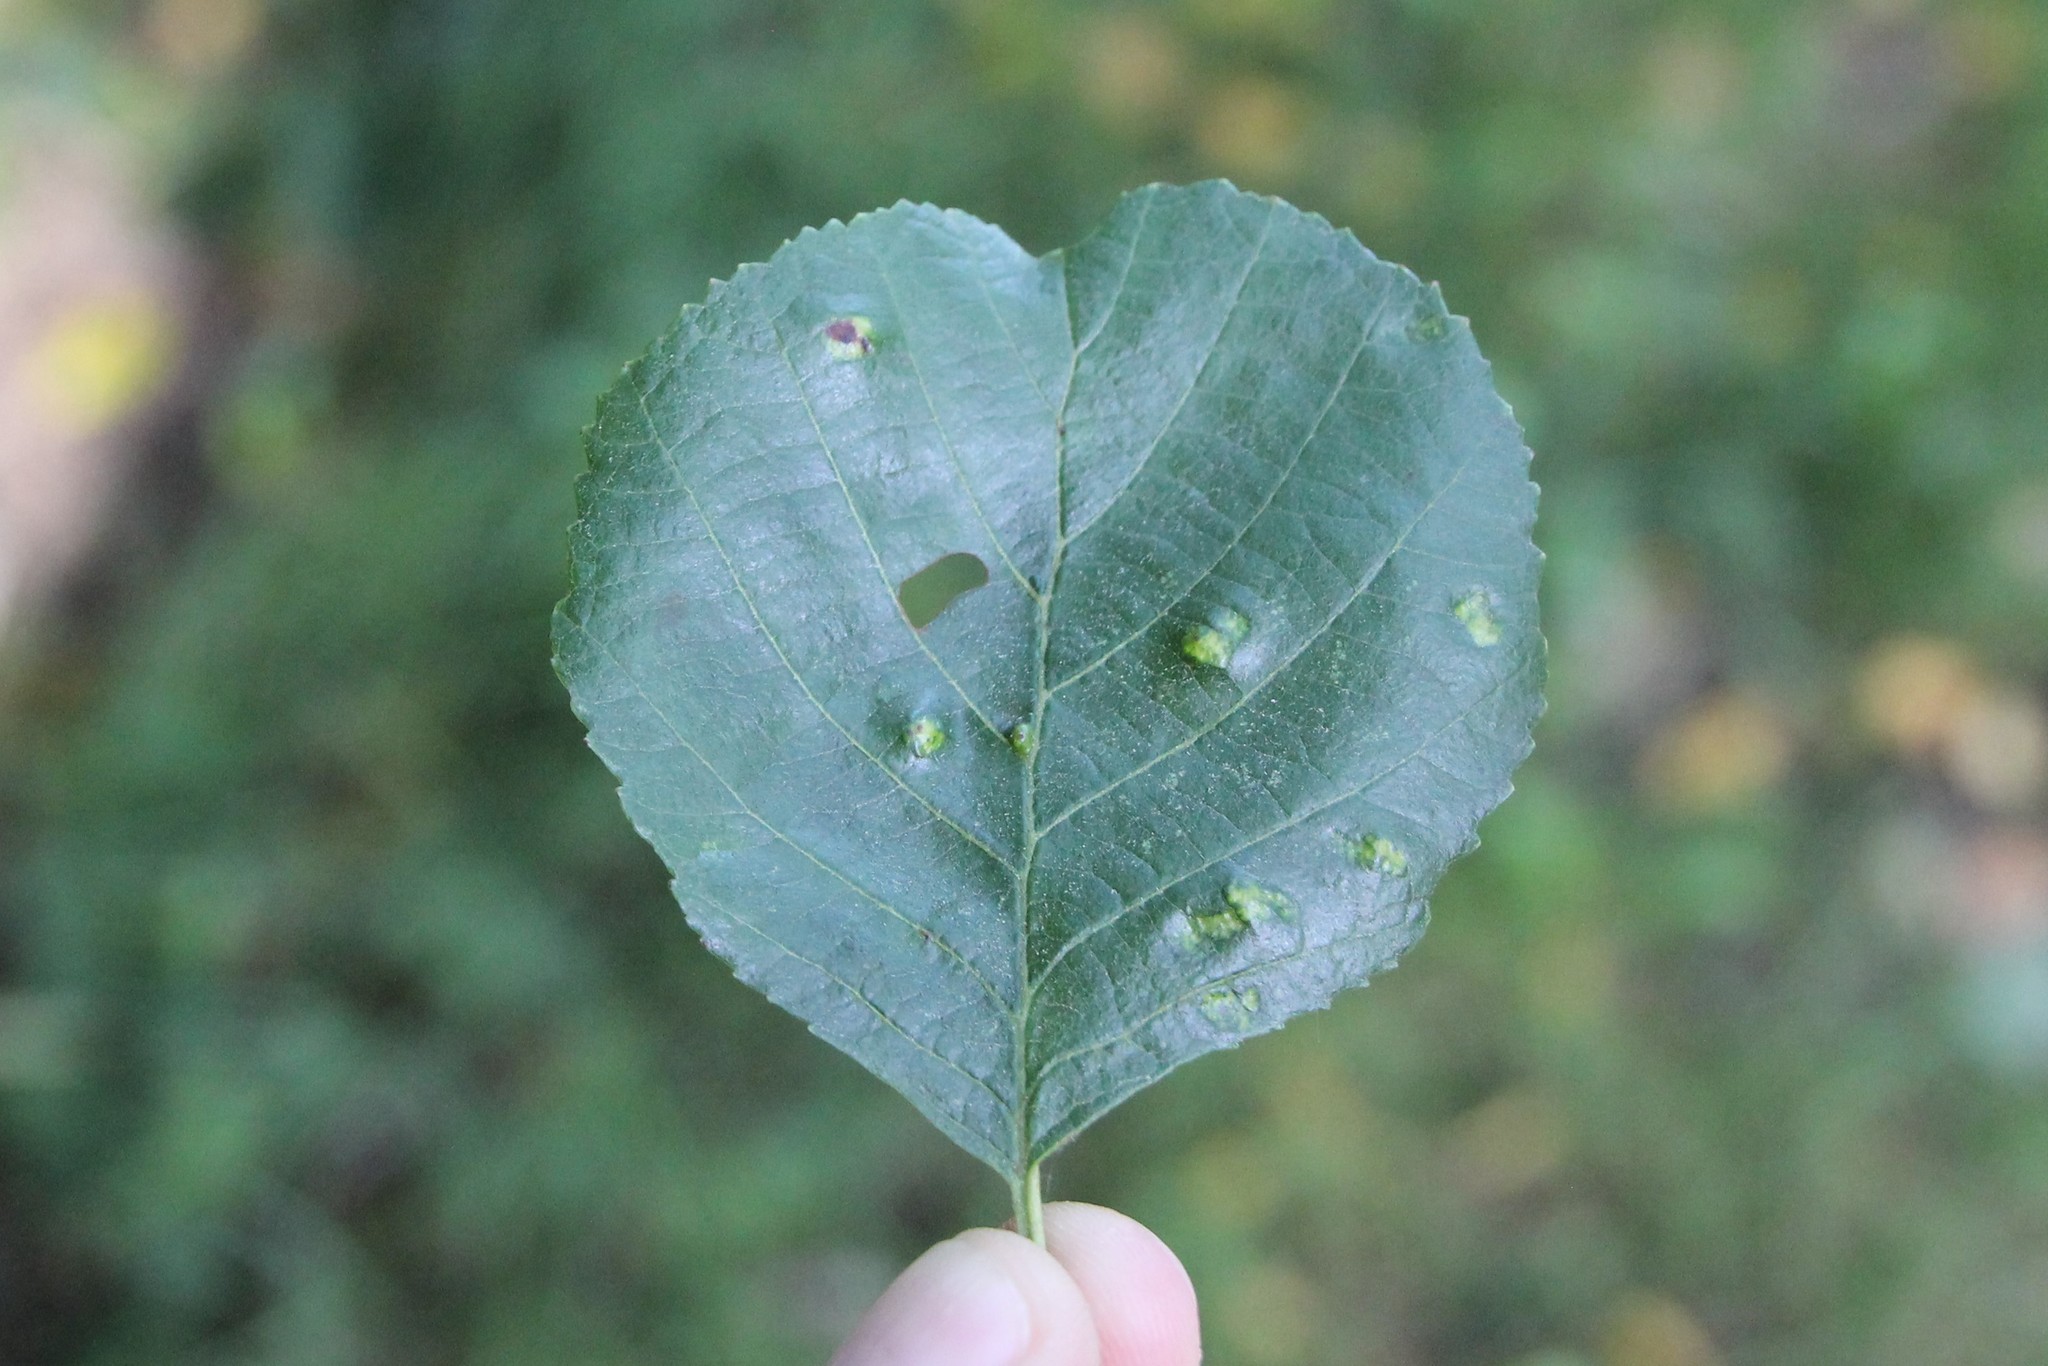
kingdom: Animalia
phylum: Arthropoda
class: Arachnida
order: Trombidiformes
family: Eriophyidae
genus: Acalitus
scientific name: Acalitus brevitarsus
